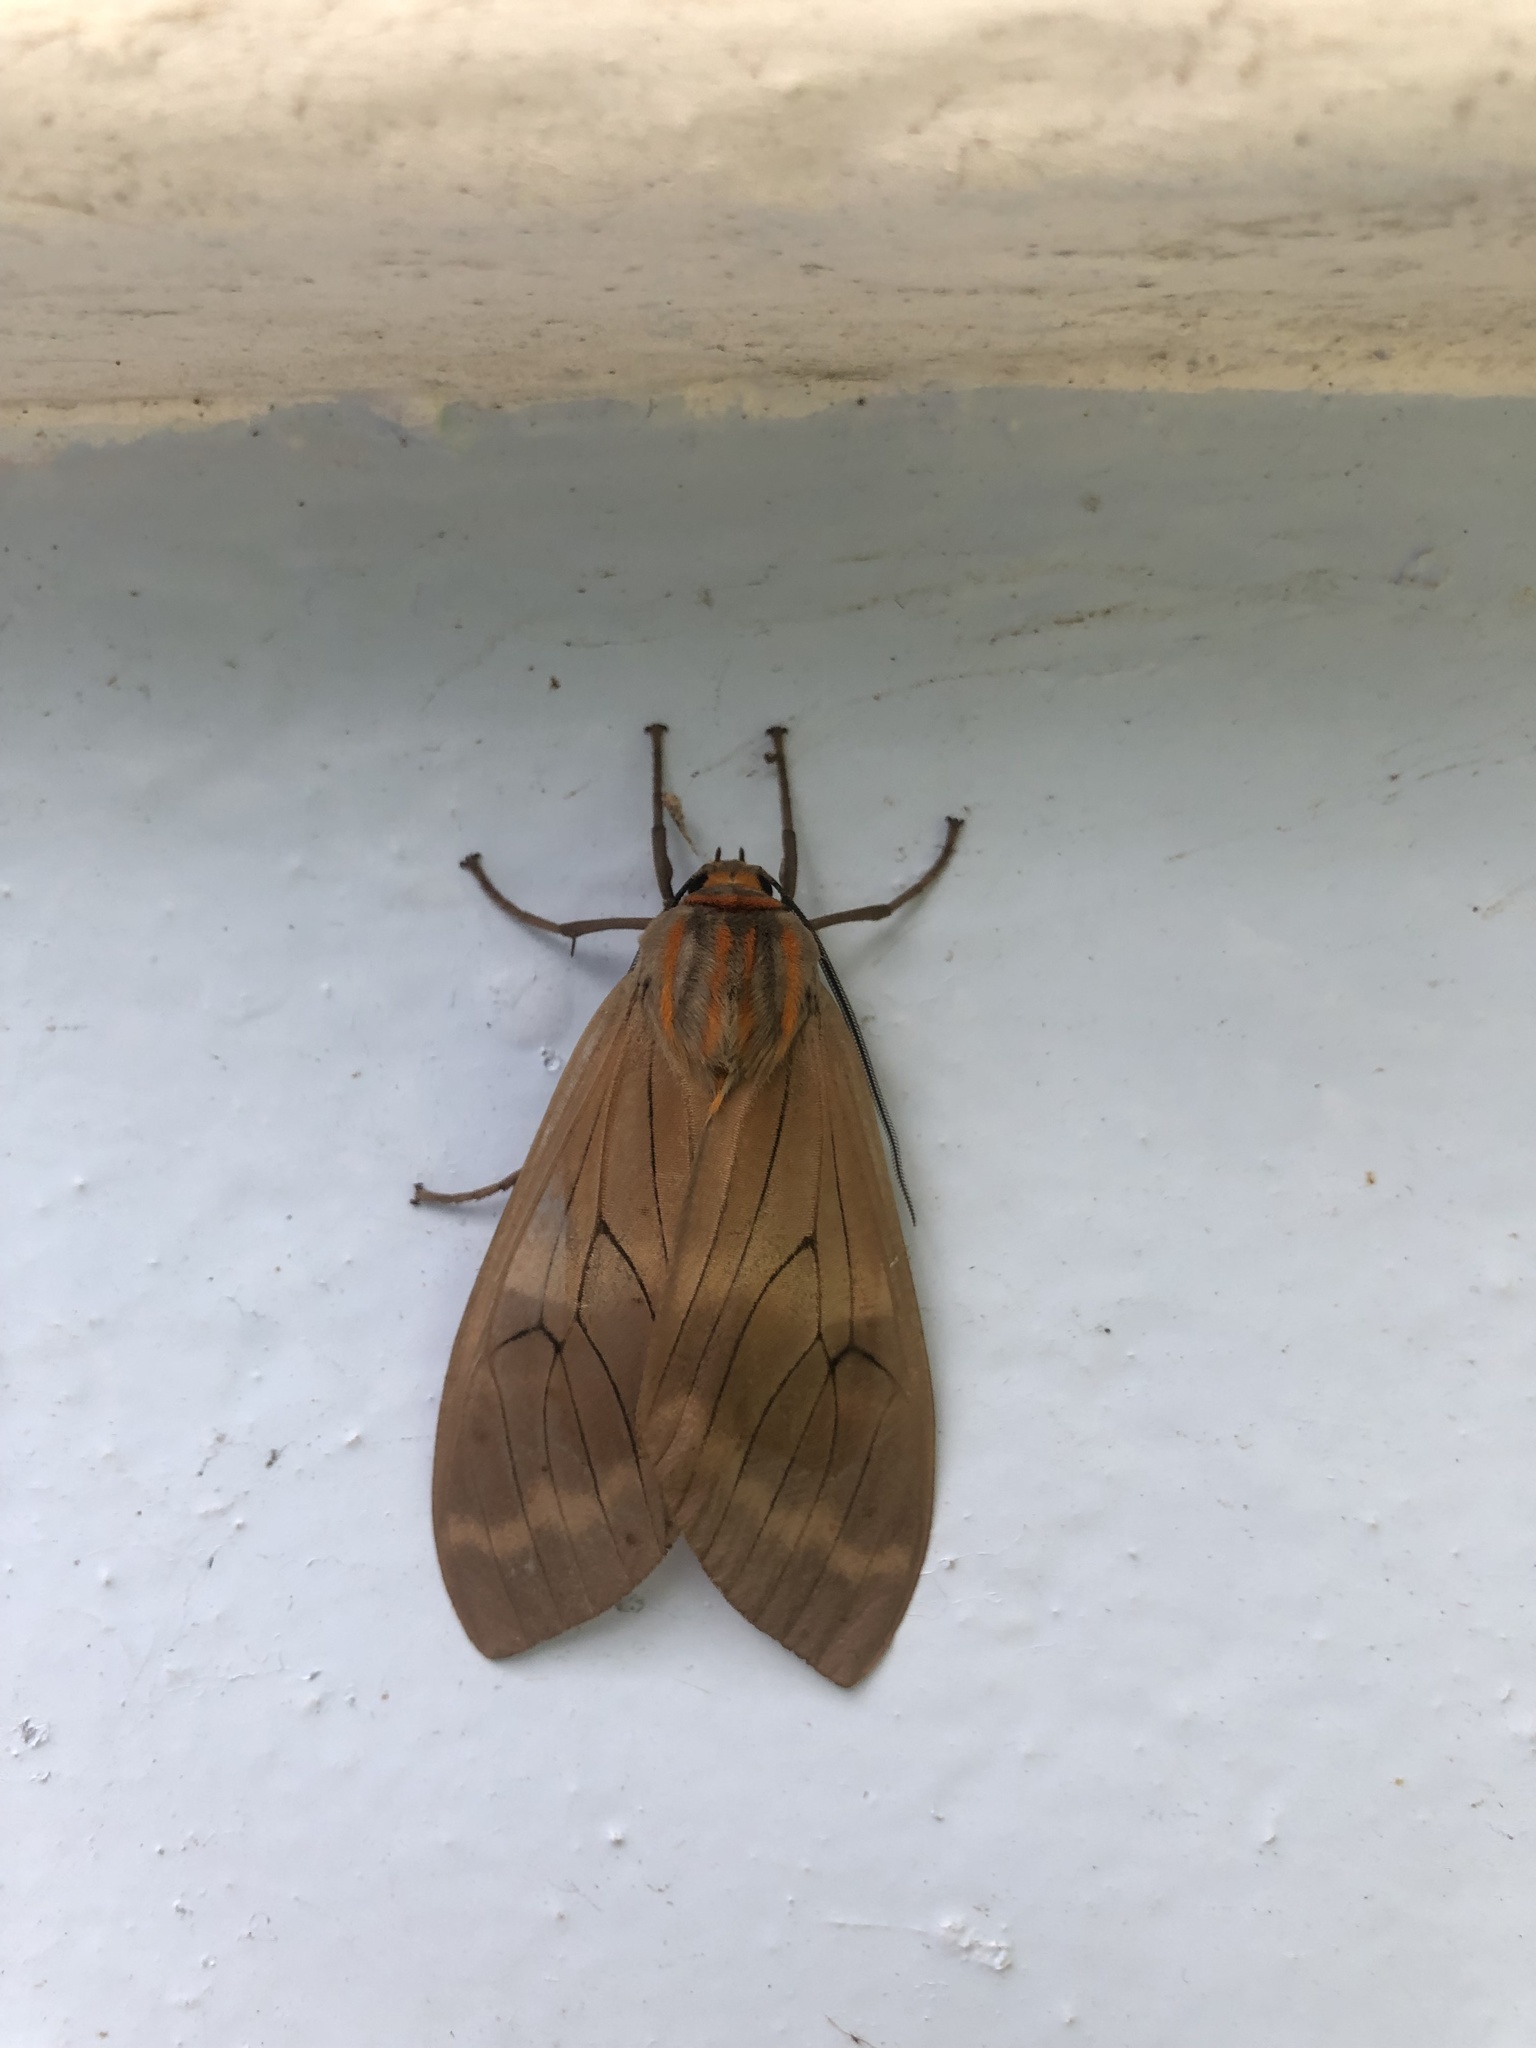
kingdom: Animalia
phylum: Arthropoda
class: Insecta
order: Lepidoptera
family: Erebidae
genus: Amastus
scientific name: Amastus ochraceator
